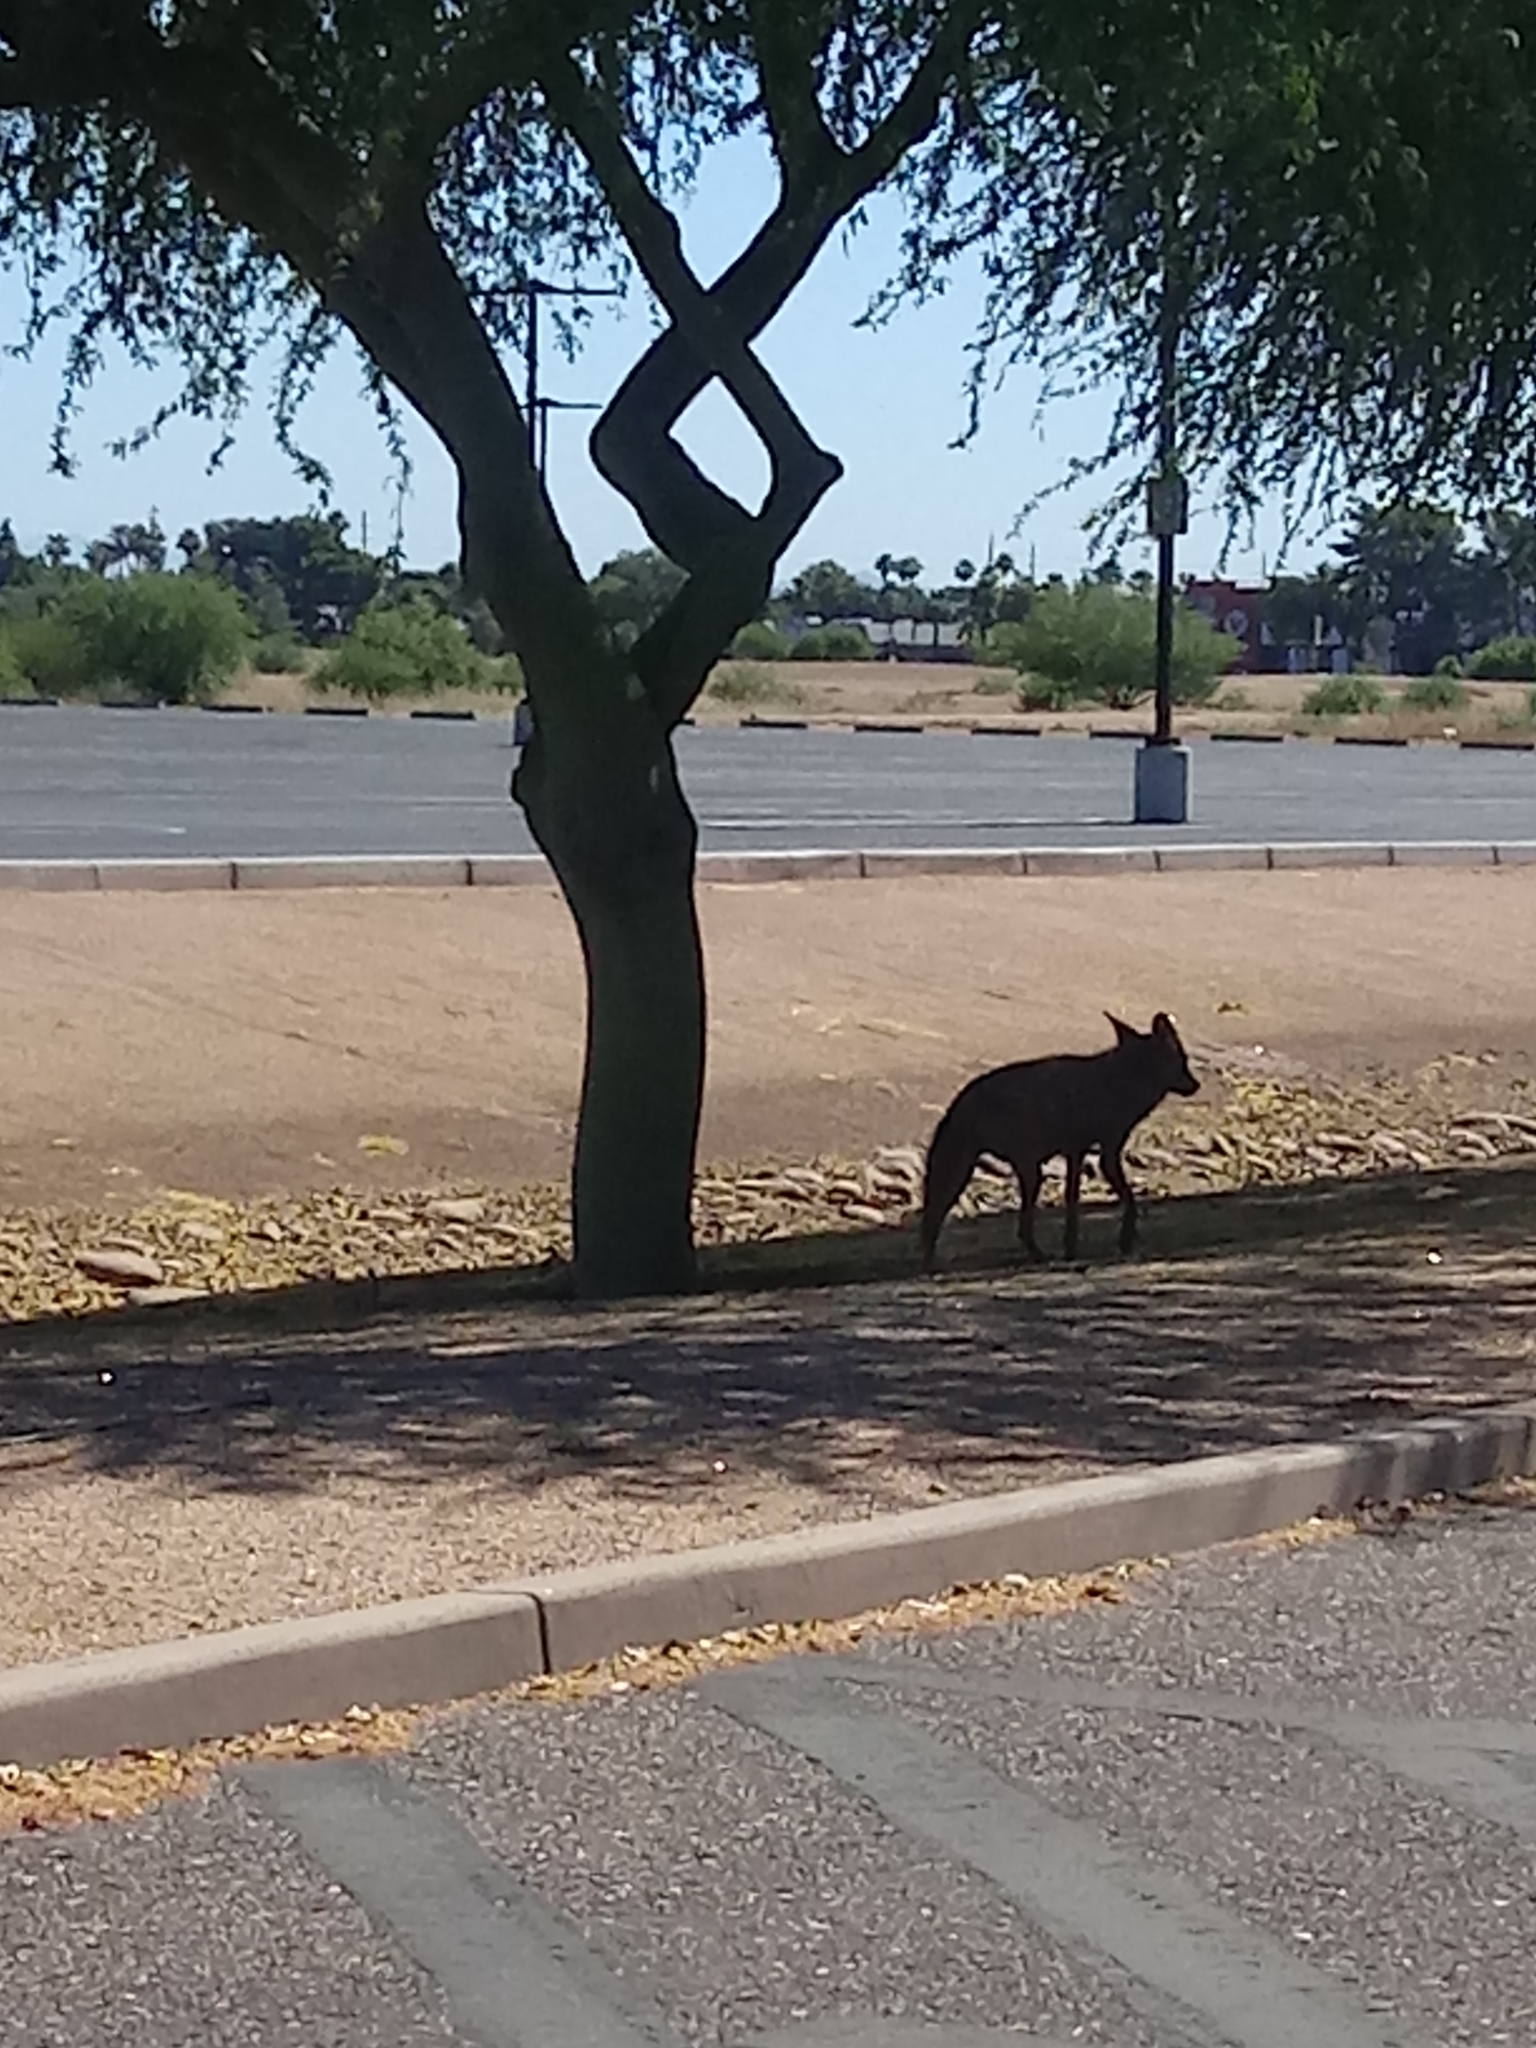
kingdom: Animalia
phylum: Chordata
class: Mammalia
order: Carnivora
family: Canidae
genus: Canis
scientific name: Canis latrans
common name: Coyote
